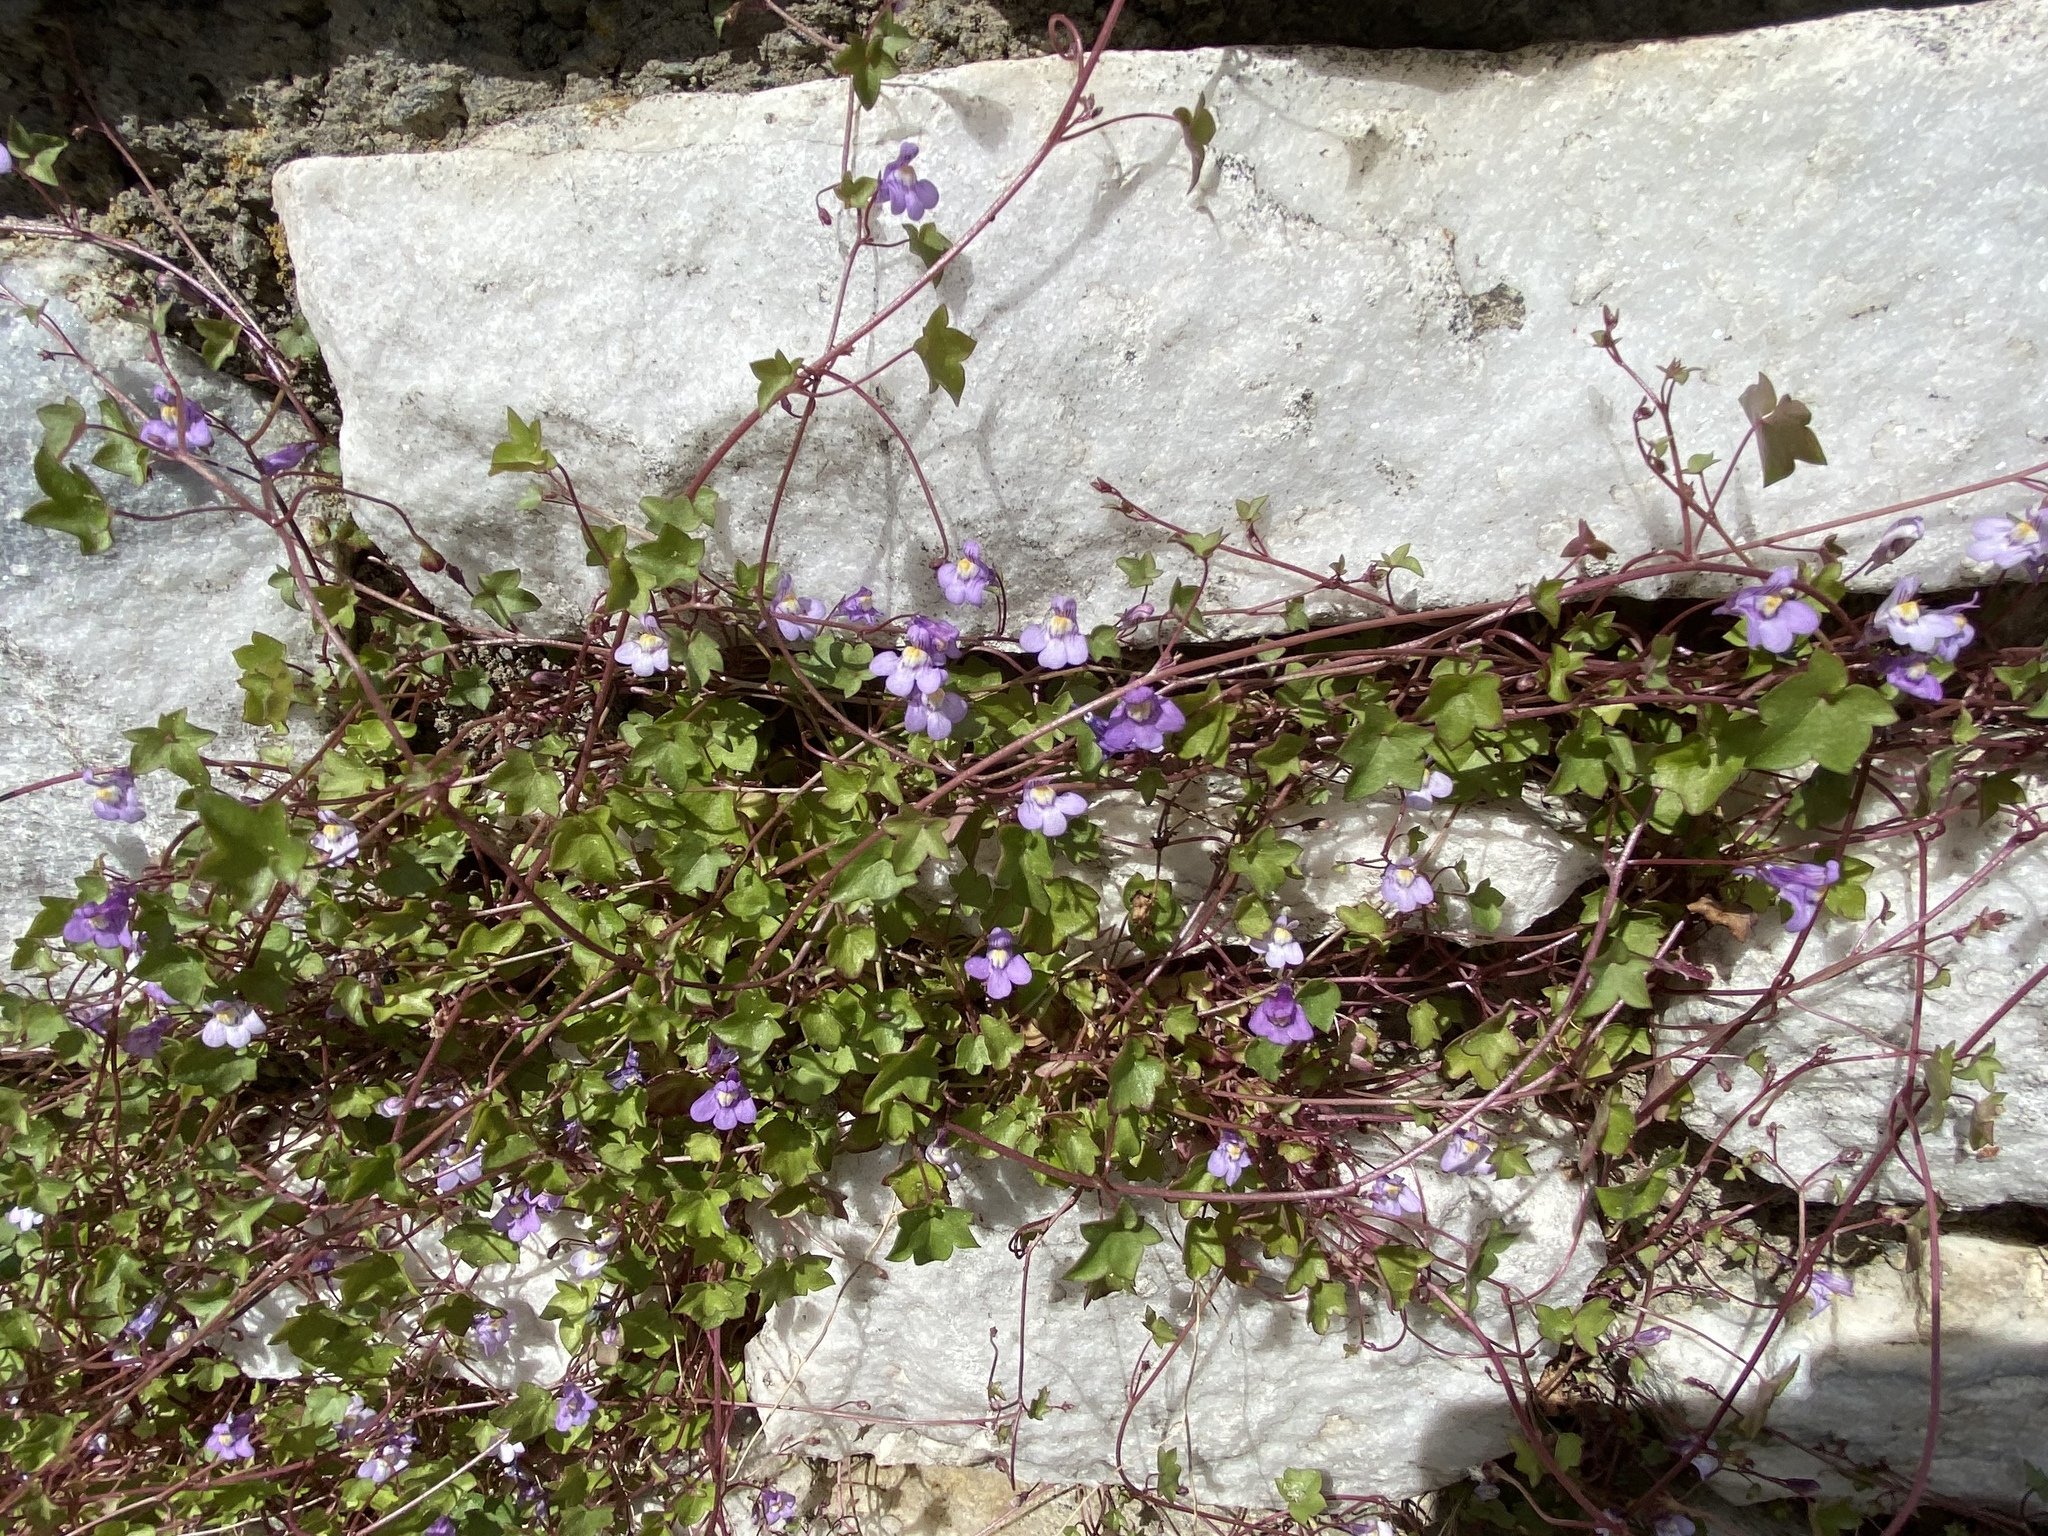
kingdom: Plantae
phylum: Tracheophyta
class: Magnoliopsida
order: Lamiales
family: Plantaginaceae
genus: Cymbalaria
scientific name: Cymbalaria muralis
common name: Ivy-leaved toadflax
